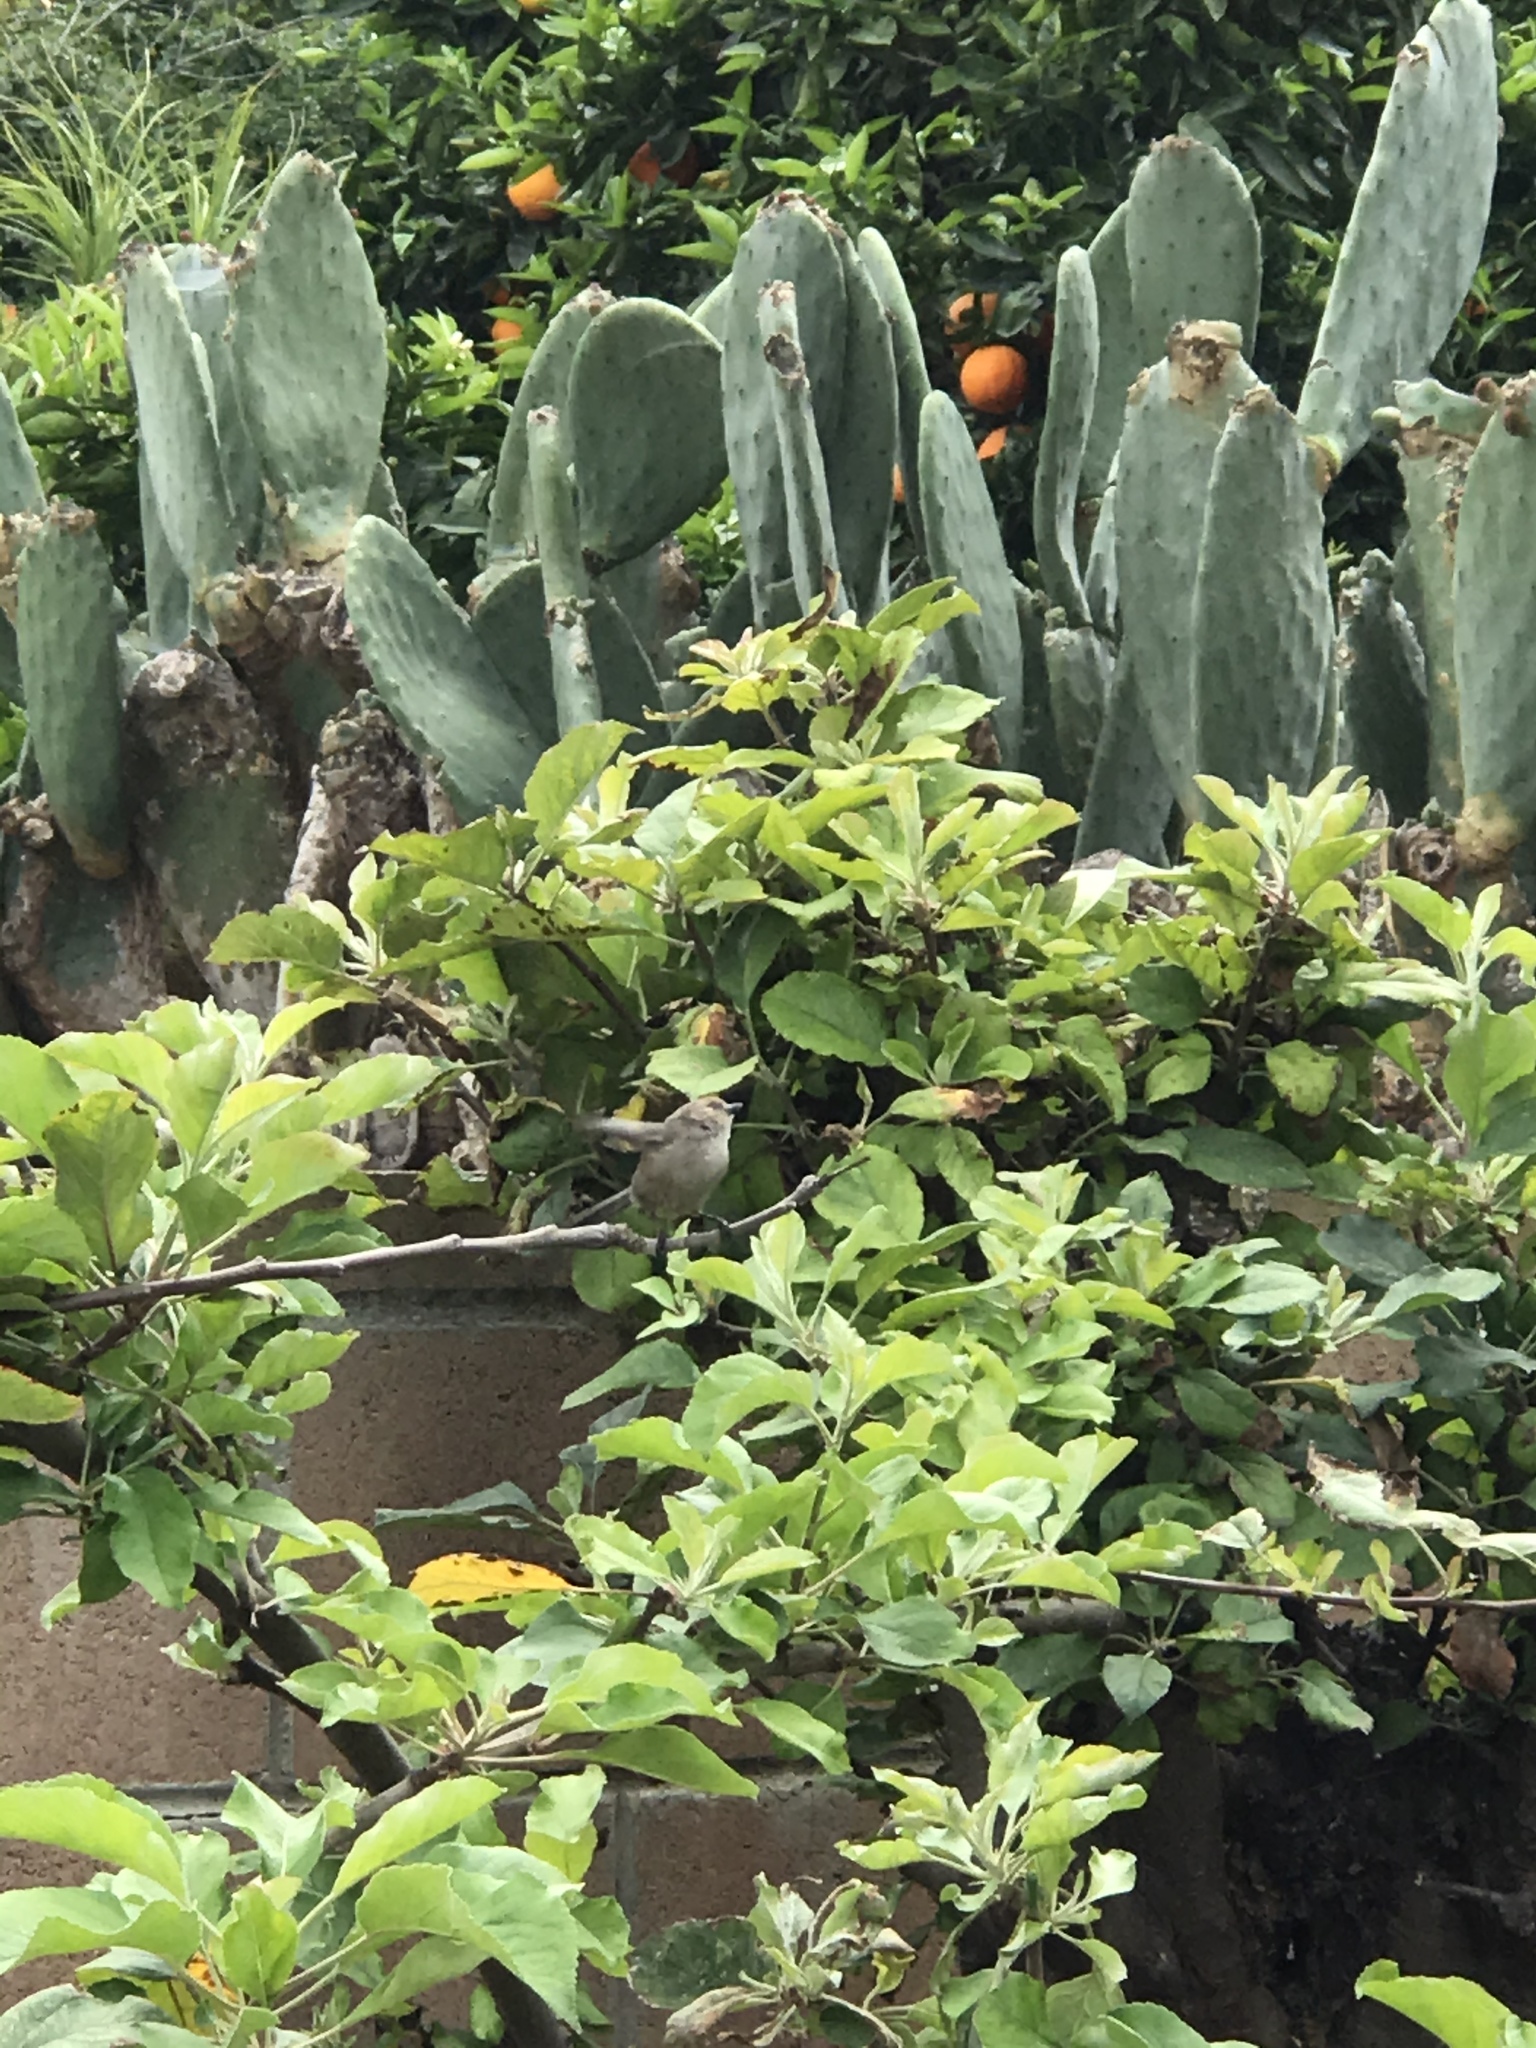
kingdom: Animalia
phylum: Chordata
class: Aves
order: Passeriformes
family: Aegithalidae
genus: Psaltriparus
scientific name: Psaltriparus minimus
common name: American bushtit
